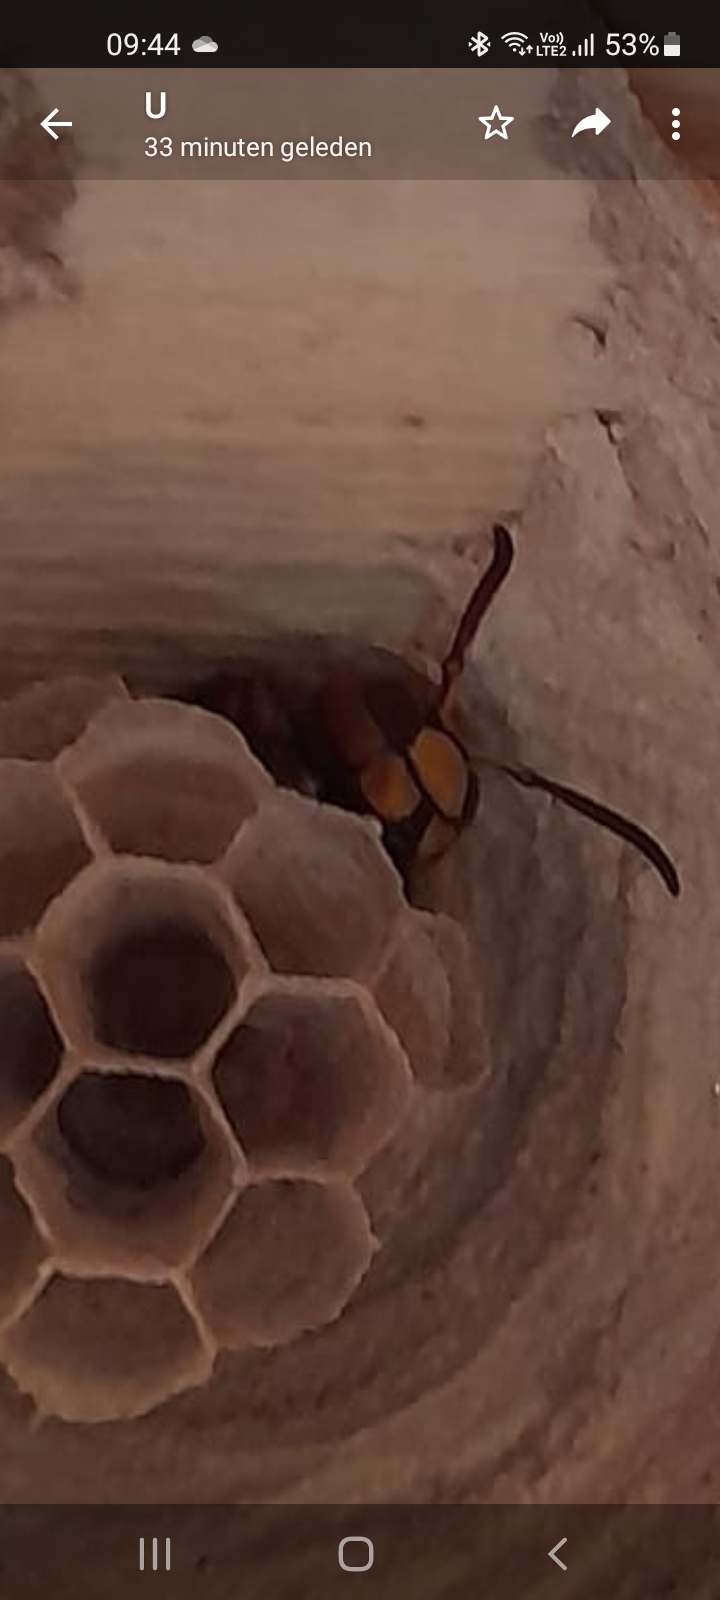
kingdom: Animalia
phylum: Arthropoda
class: Insecta
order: Hymenoptera
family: Vespidae
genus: Vespa
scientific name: Vespa crabro
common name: Hornet
